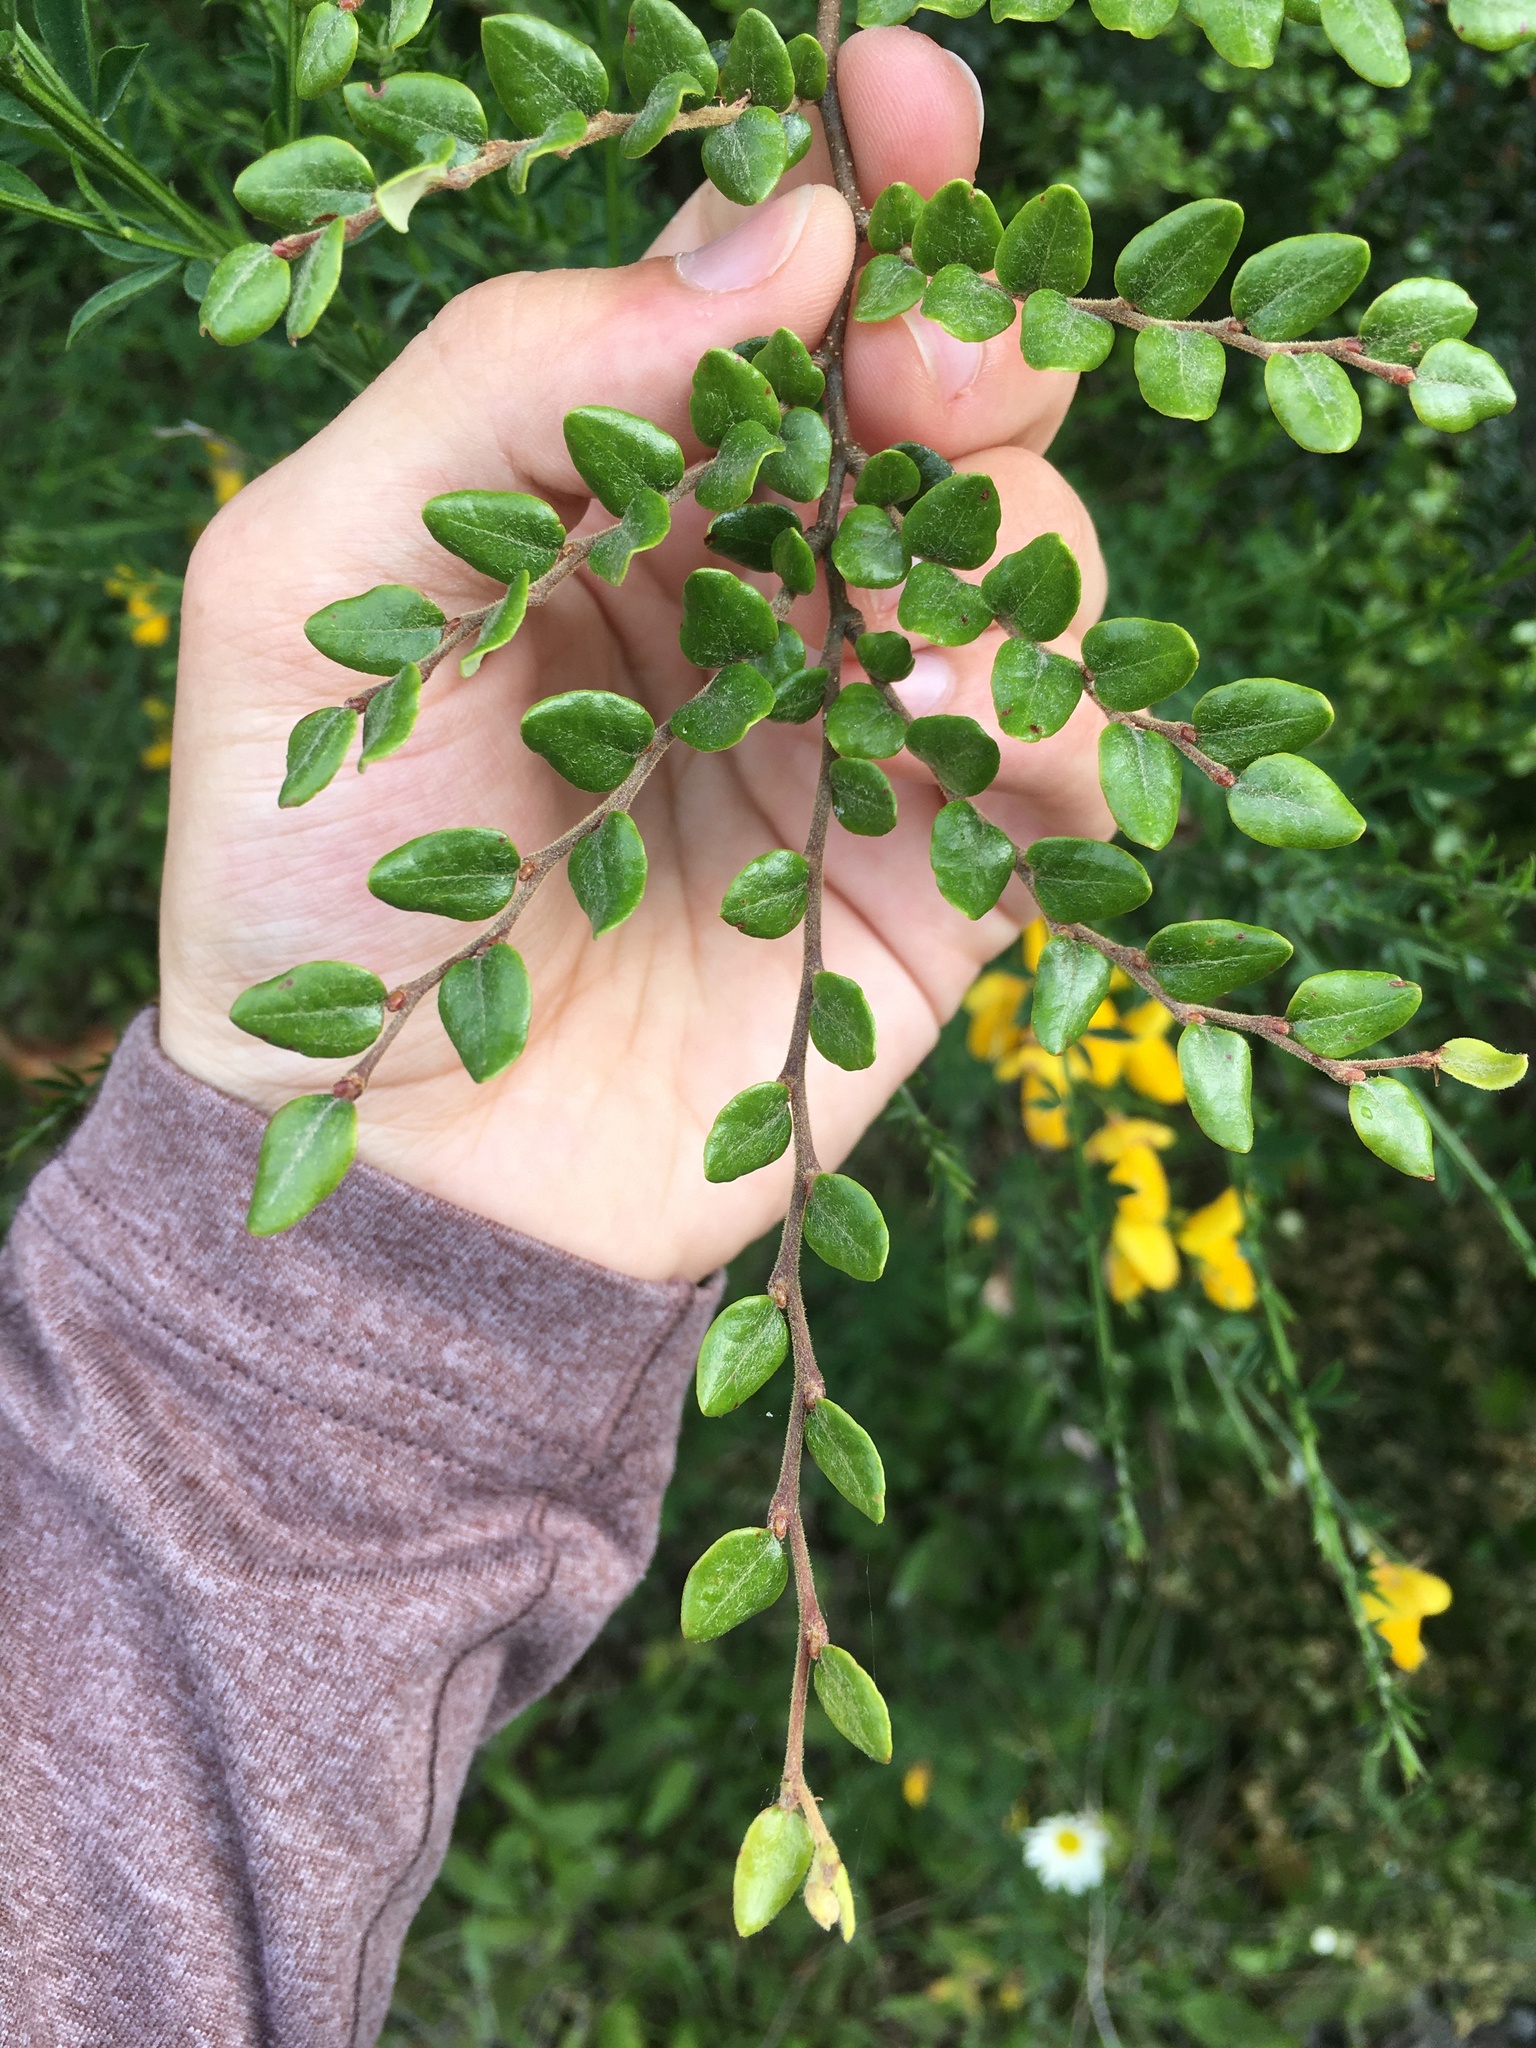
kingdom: Plantae
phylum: Tracheophyta
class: Magnoliopsida
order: Fagales
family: Nothofagaceae
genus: Nothofagus
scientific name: Nothofagus cliffortioides
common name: Mountain beech
